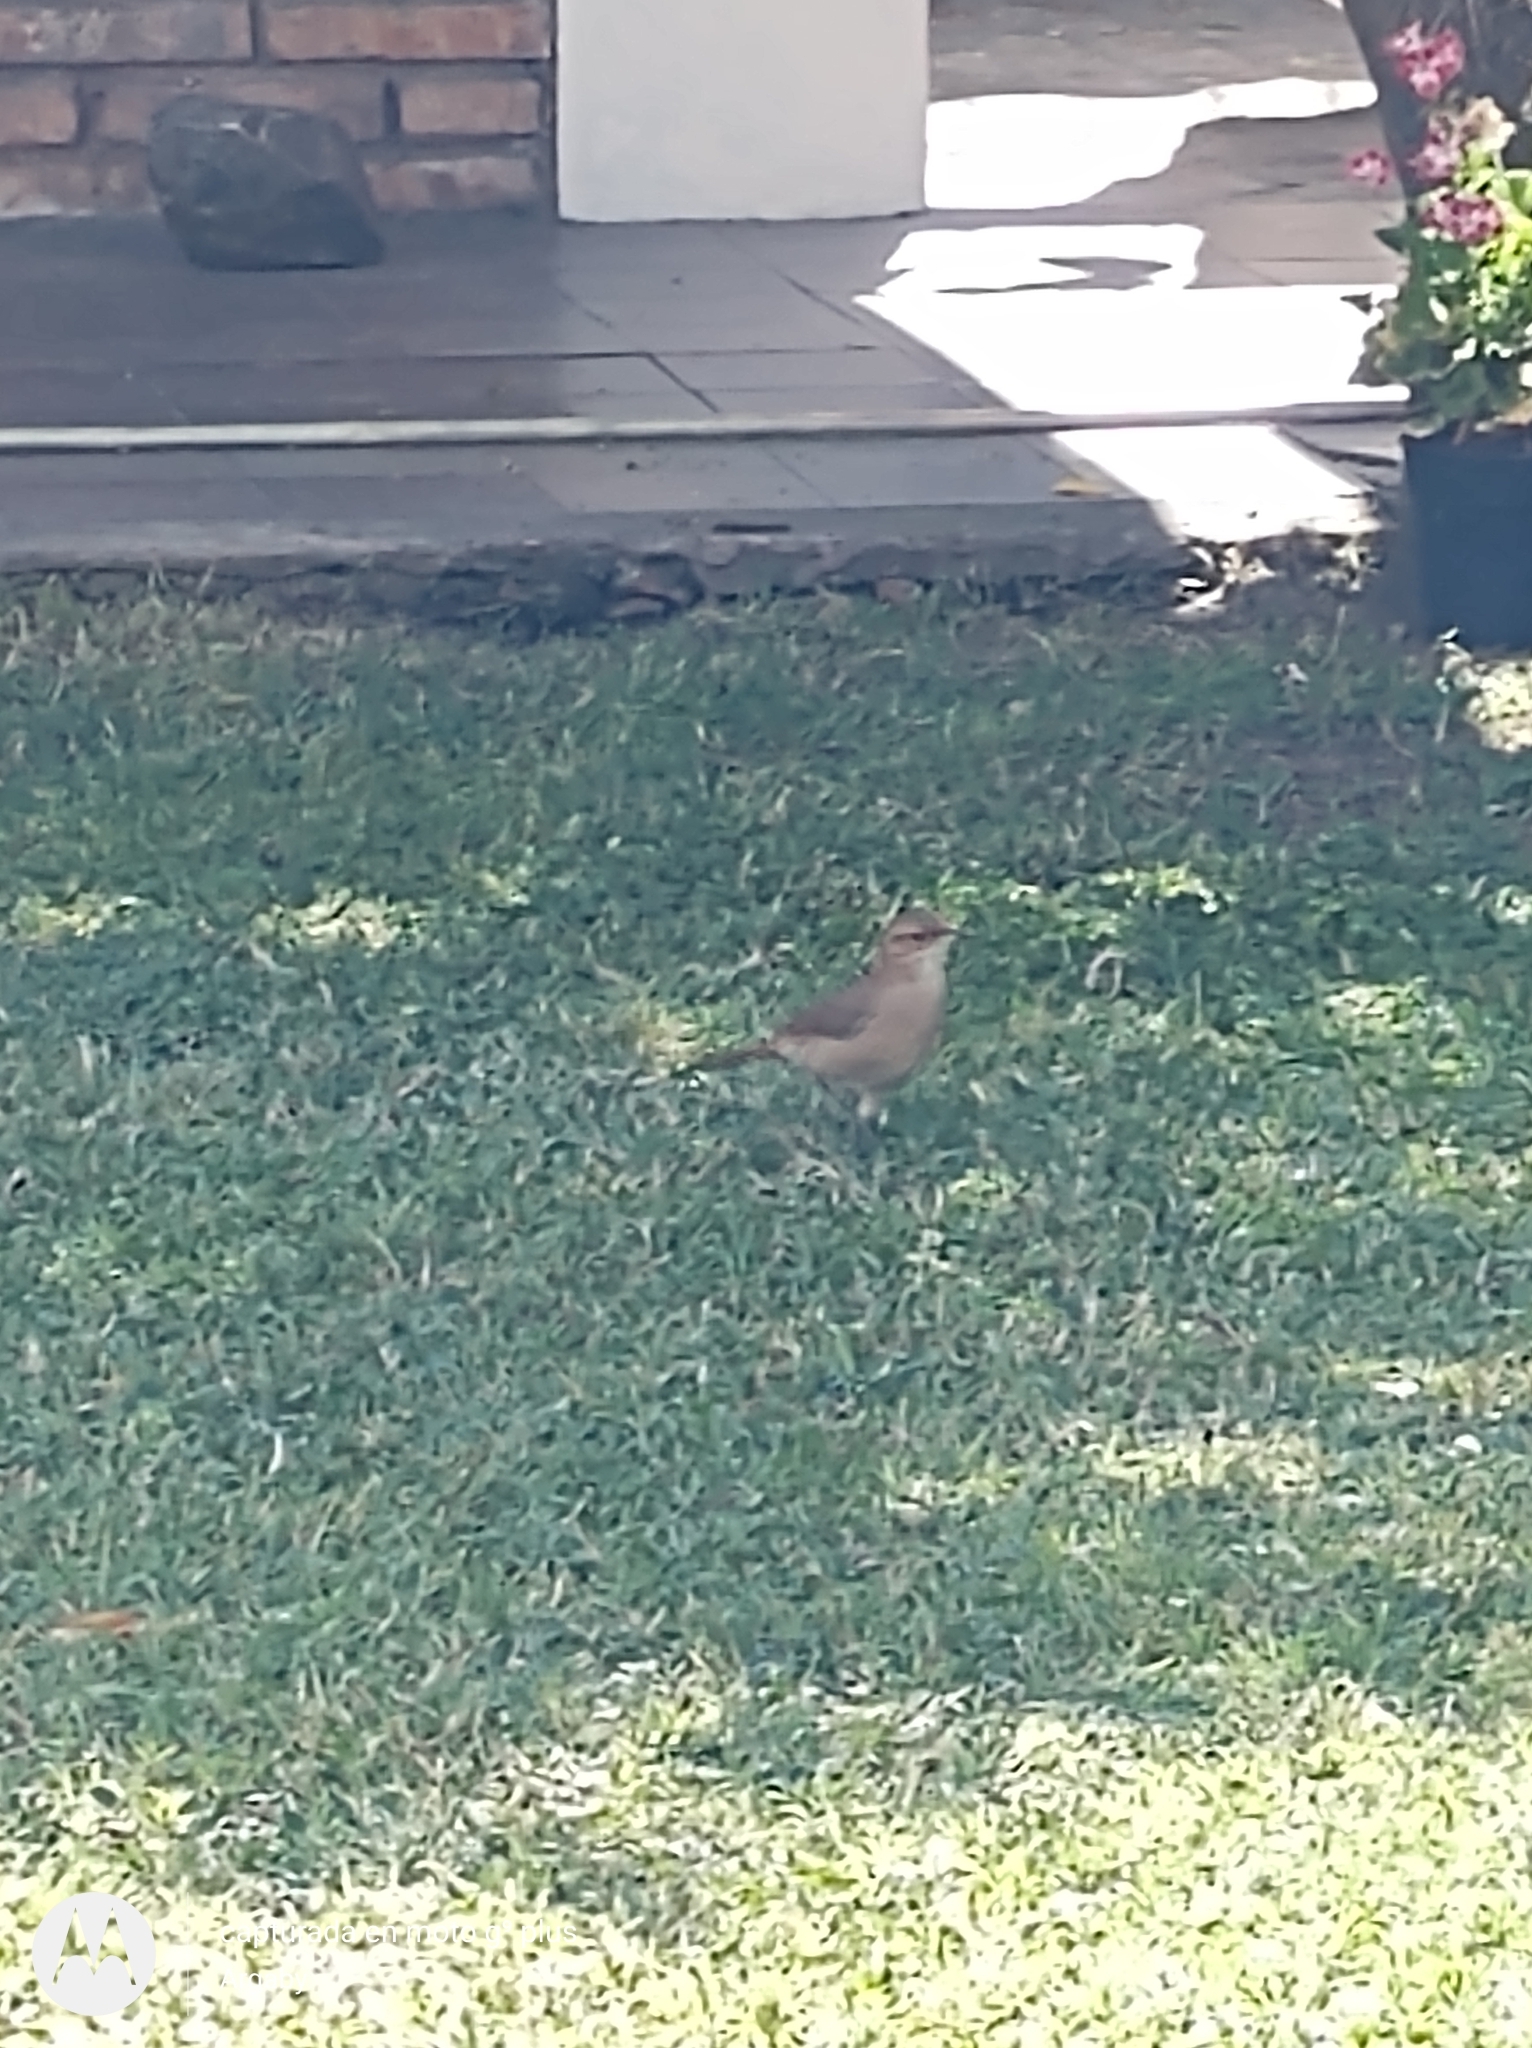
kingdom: Animalia
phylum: Chordata
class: Aves
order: Passeriformes
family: Furnariidae
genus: Furnarius
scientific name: Furnarius rufus
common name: Rufous hornero
